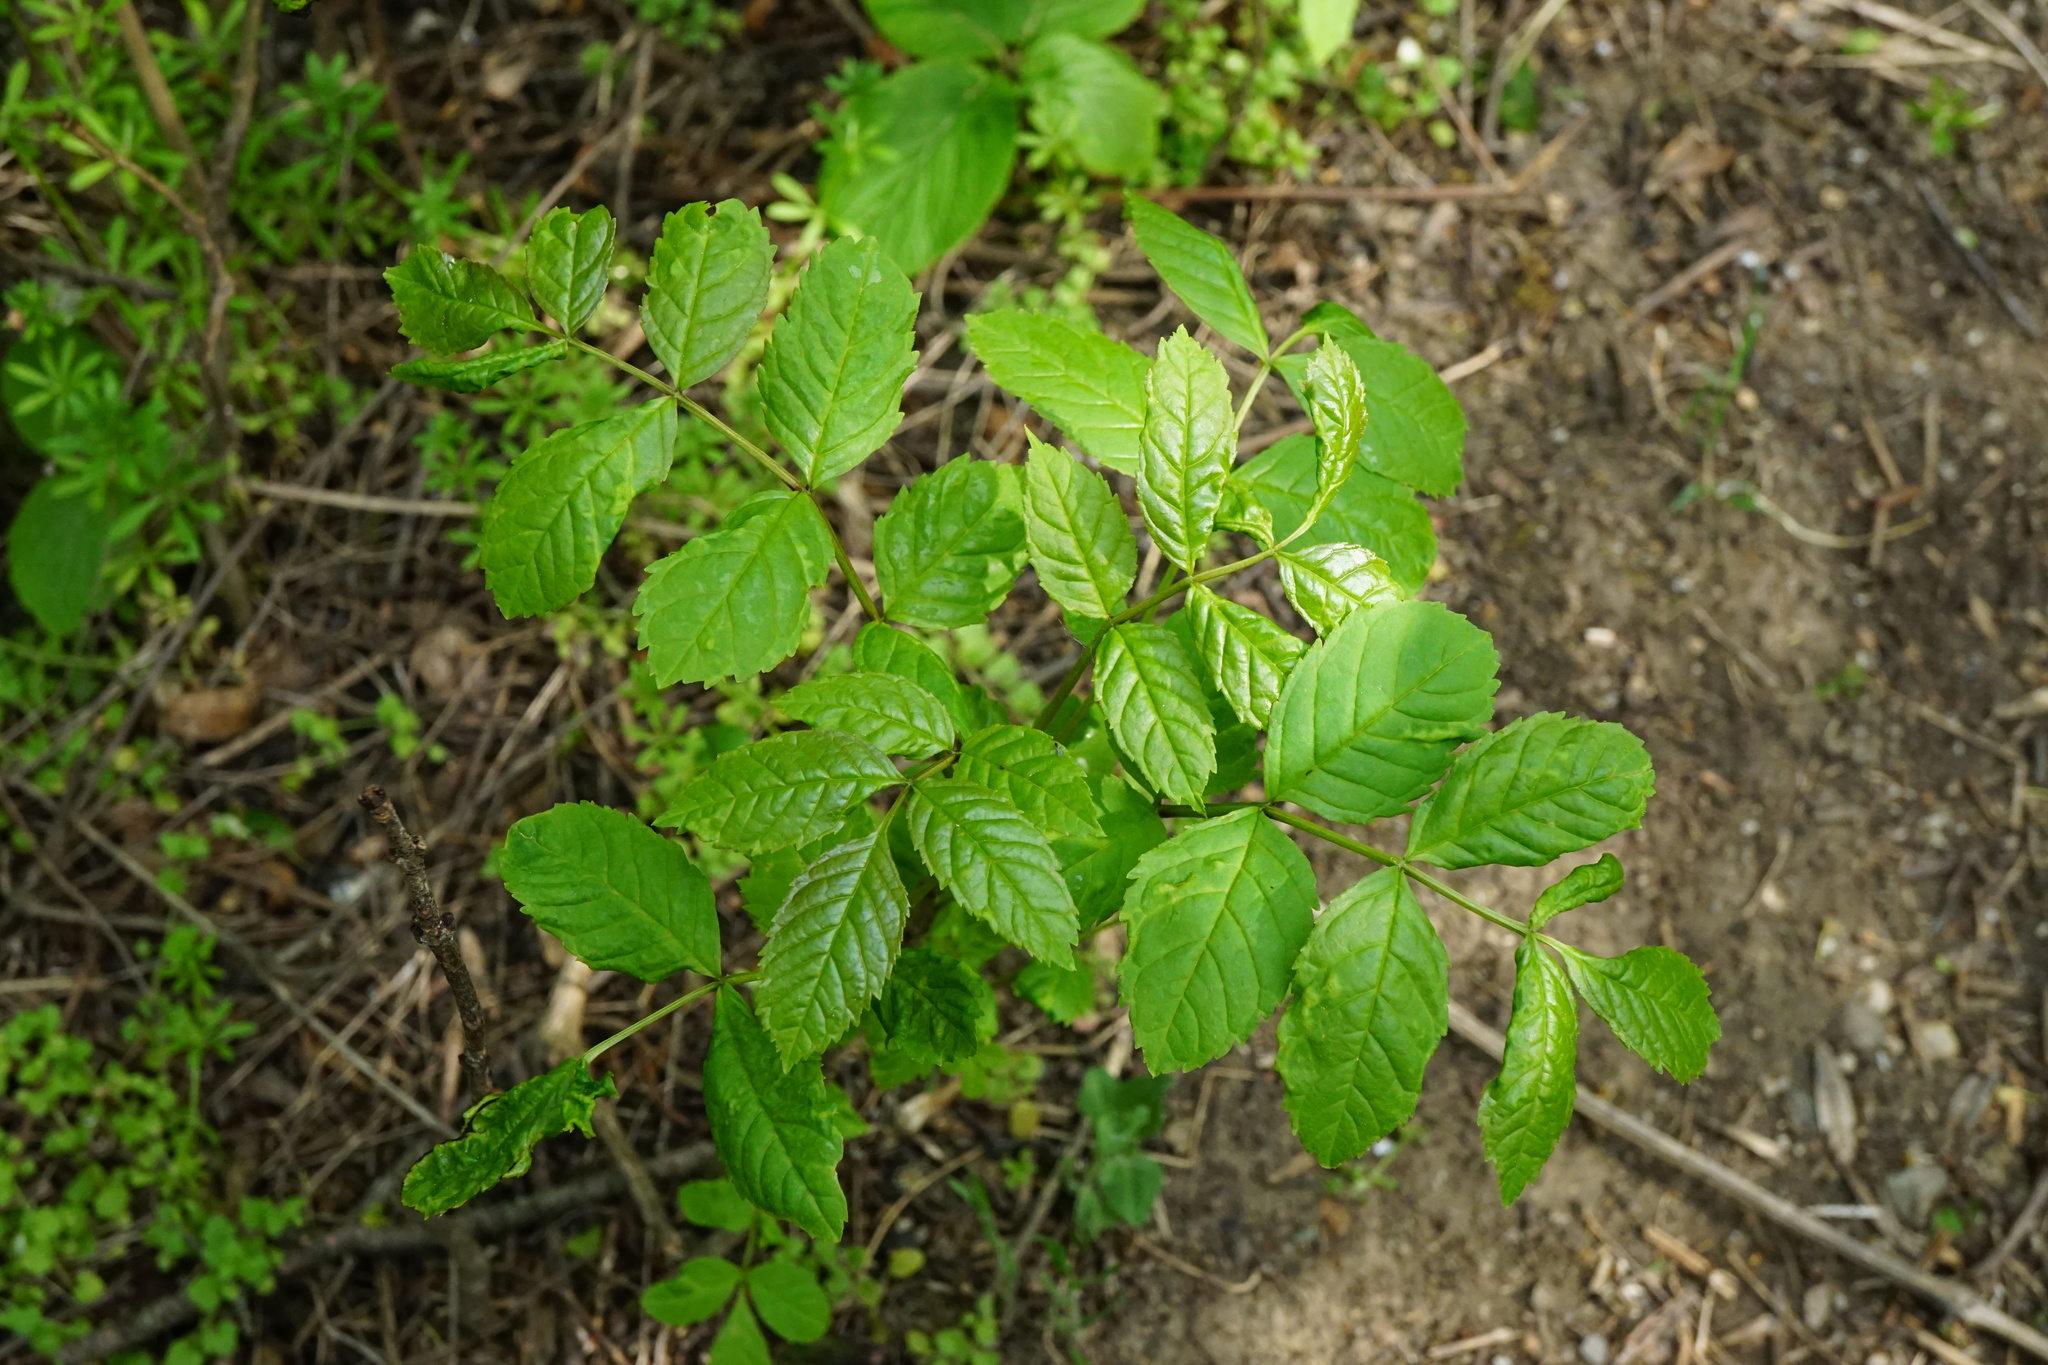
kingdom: Plantae
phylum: Tracheophyta
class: Magnoliopsida
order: Lamiales
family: Oleaceae
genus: Fraxinus
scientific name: Fraxinus excelsior
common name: European ash
